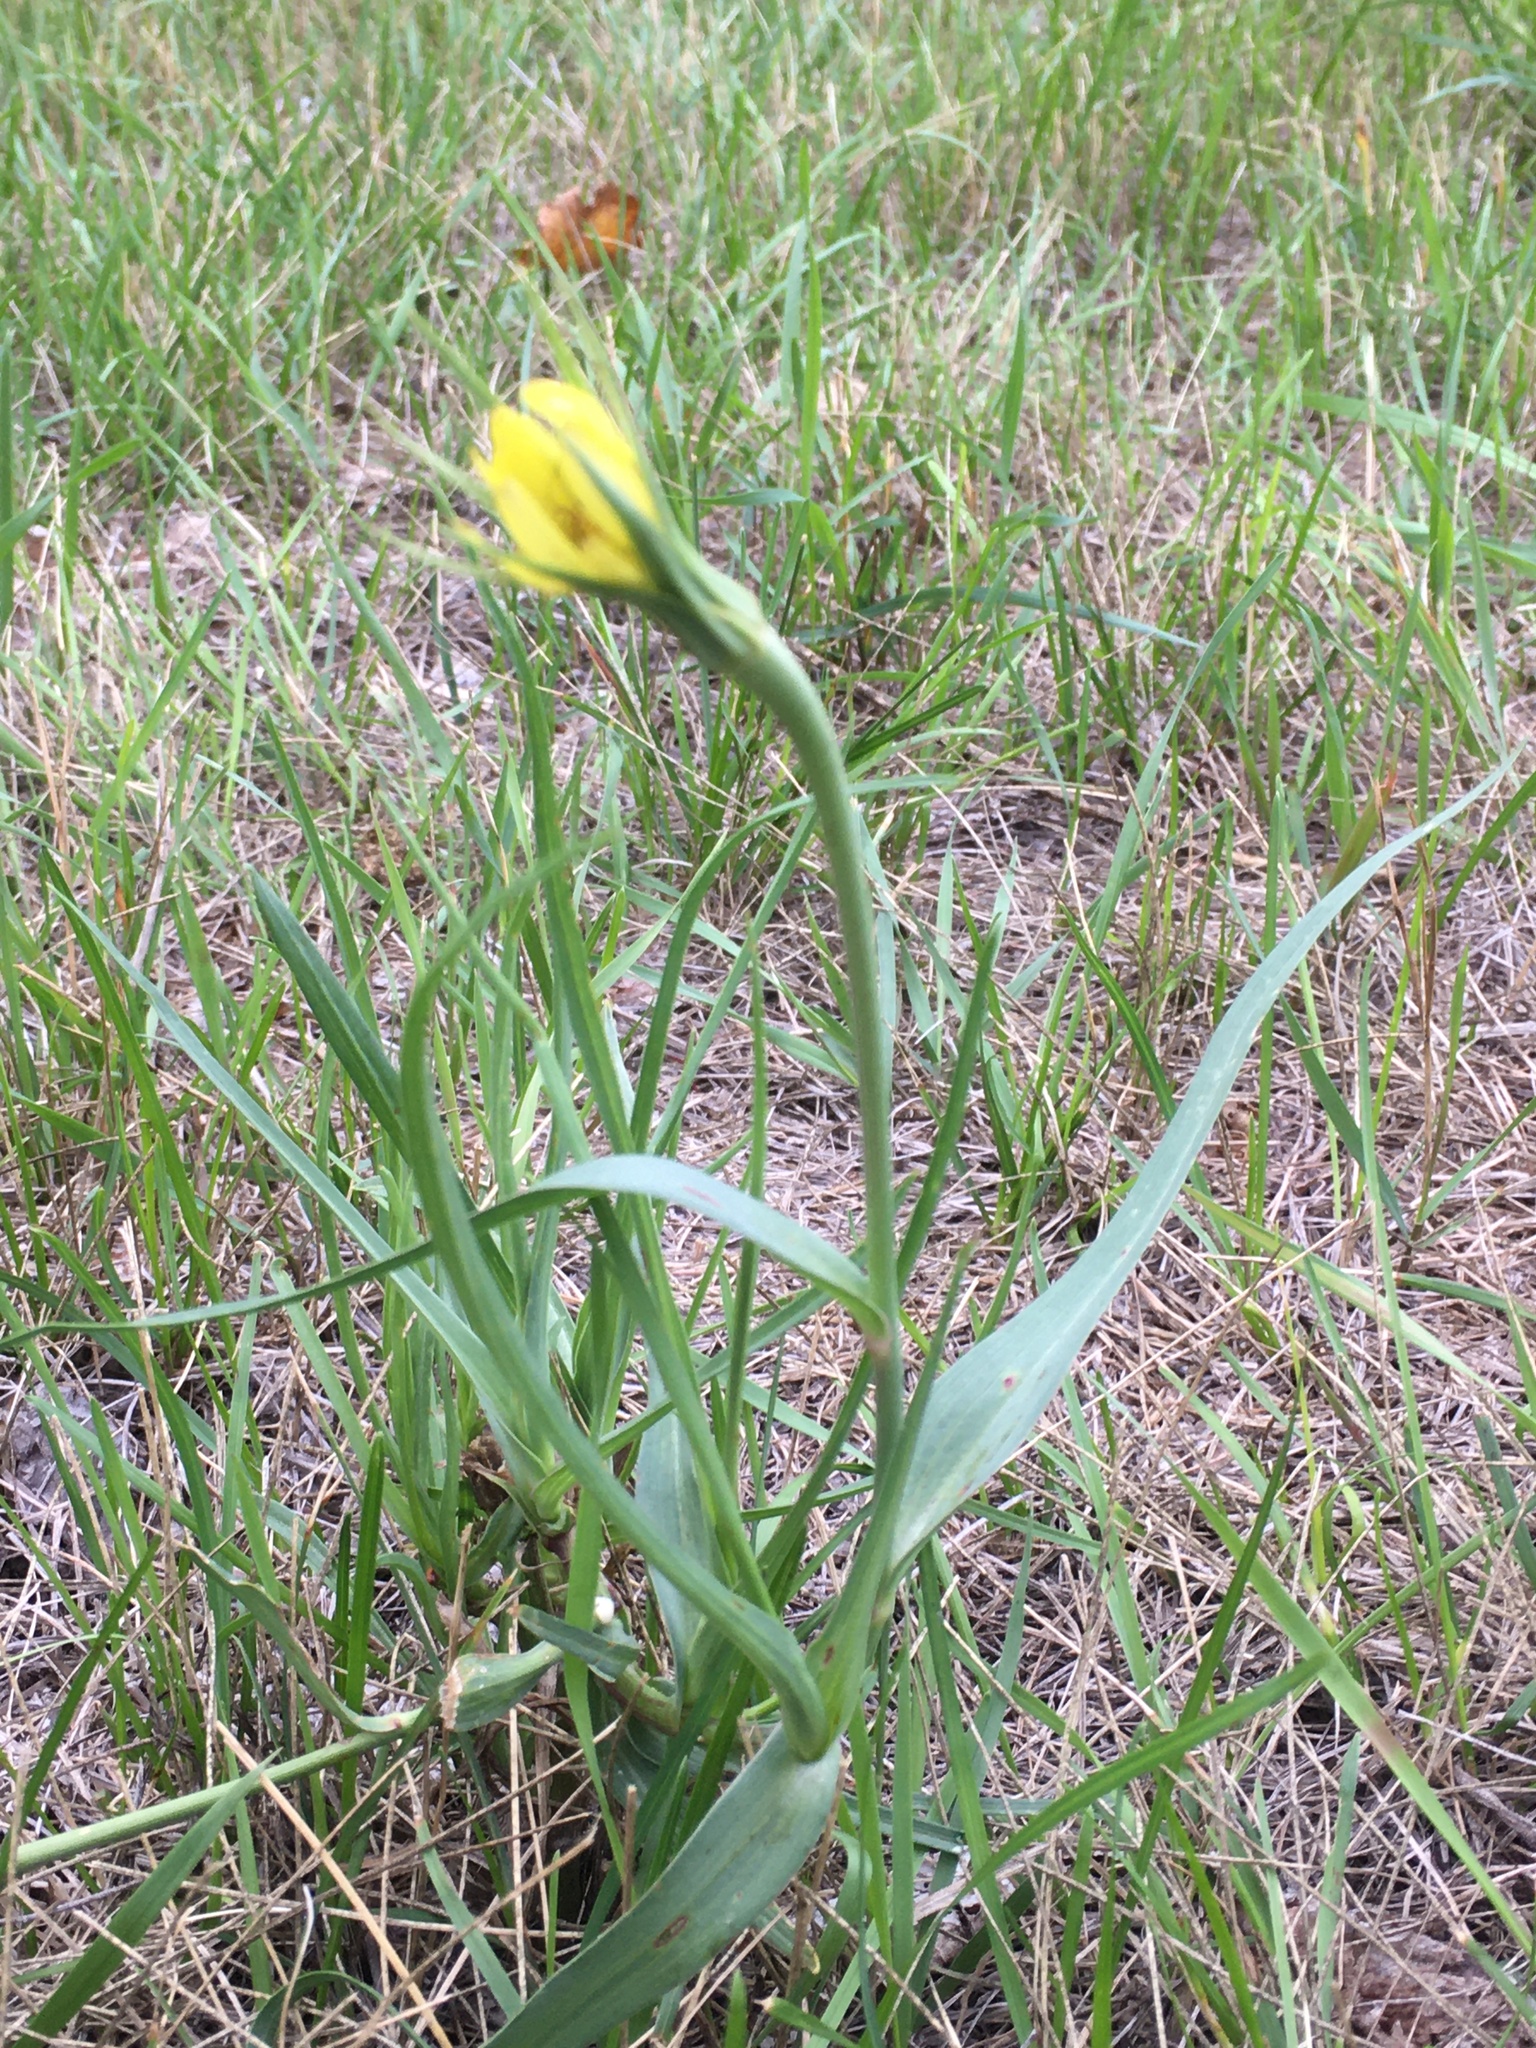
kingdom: Plantae
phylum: Tracheophyta
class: Magnoliopsida
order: Asterales
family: Asteraceae
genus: Tragopogon
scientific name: Tragopogon dubius
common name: Yellow salsify
